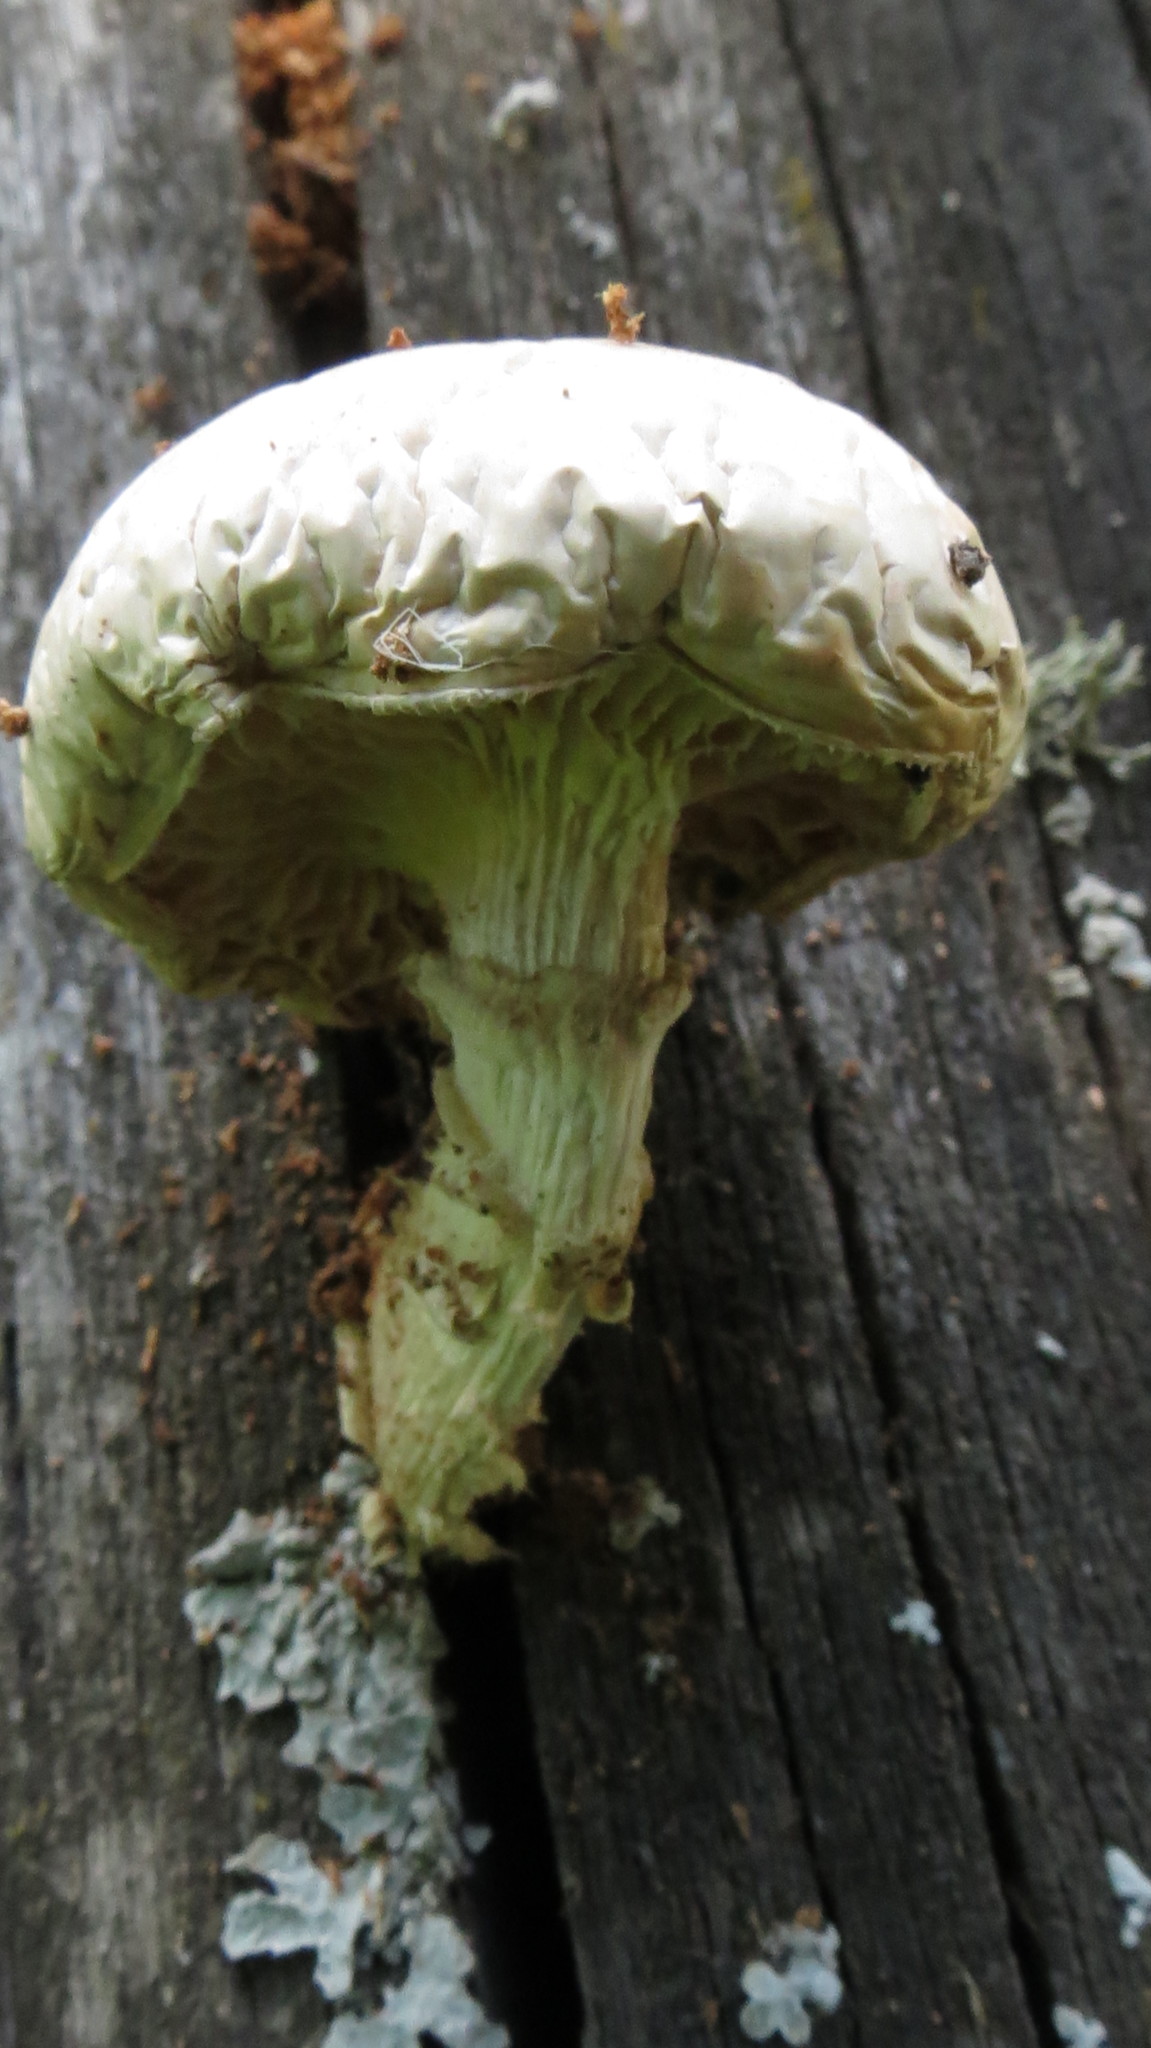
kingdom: Fungi
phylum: Basidiomycota
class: Agaricomycetes
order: Agaricales
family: Strophariaceae
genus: Pholiota
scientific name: Pholiota populnea
